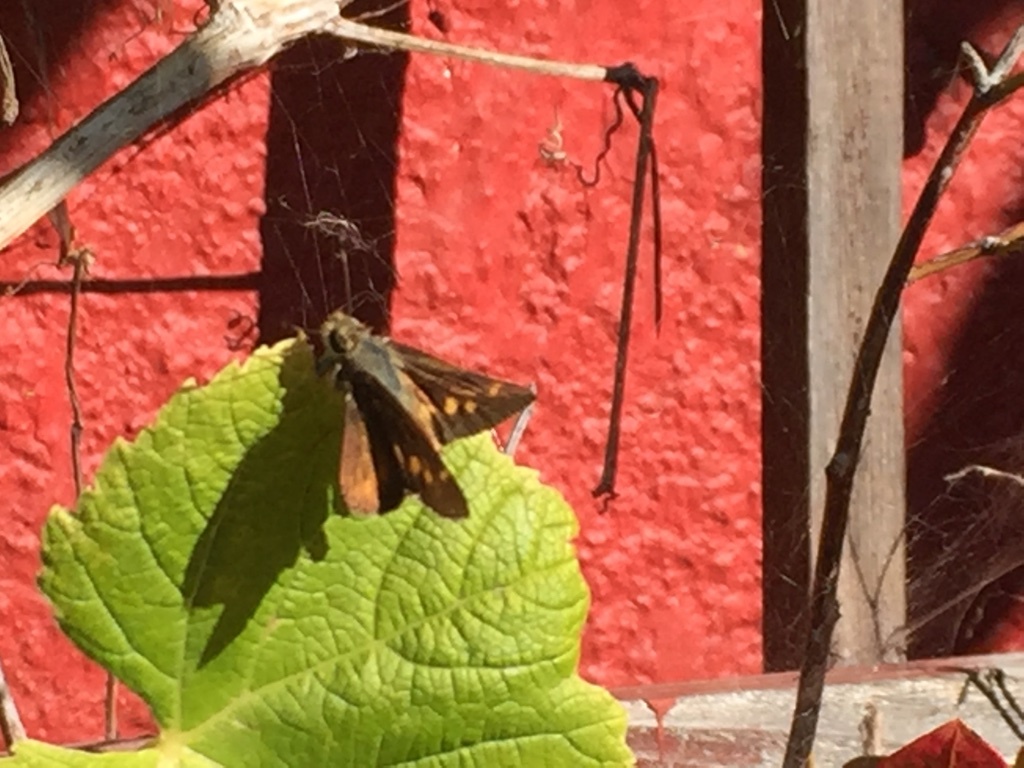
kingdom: Animalia
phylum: Arthropoda
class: Insecta
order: Lepidoptera
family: Hesperiidae
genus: Lon
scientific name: Lon melane
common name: Umber skipper
